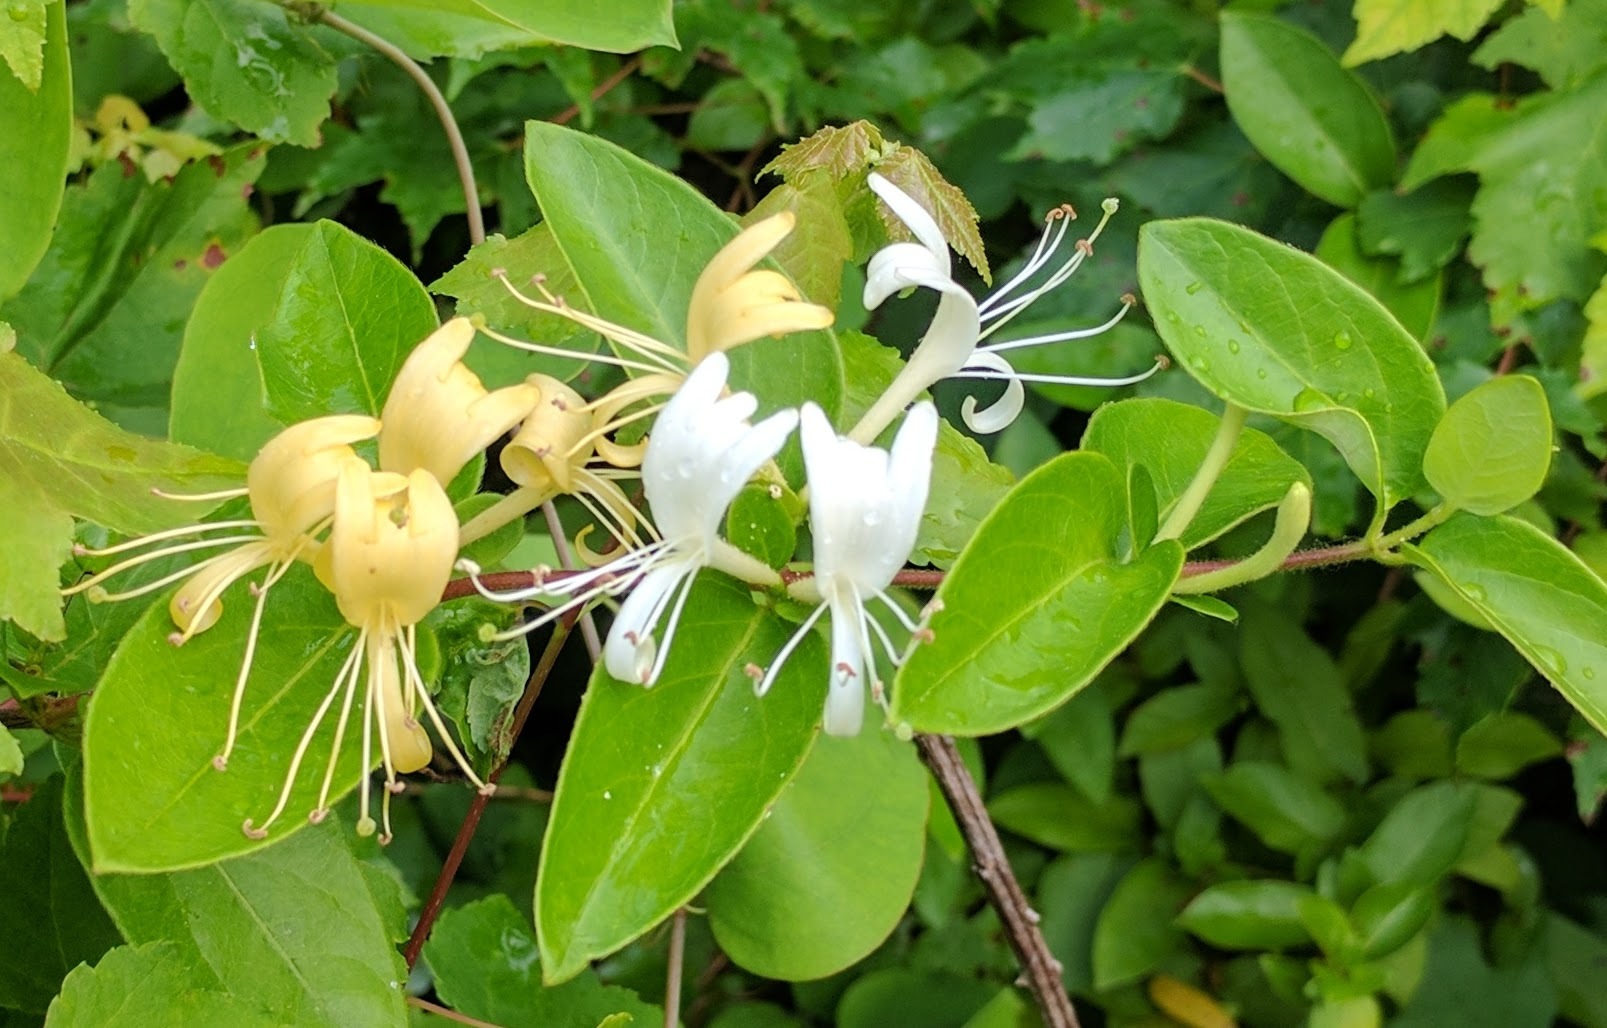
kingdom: Plantae
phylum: Tracheophyta
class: Magnoliopsida
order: Dipsacales
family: Caprifoliaceae
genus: Lonicera
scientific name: Lonicera japonica
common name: Japanese honeysuckle
